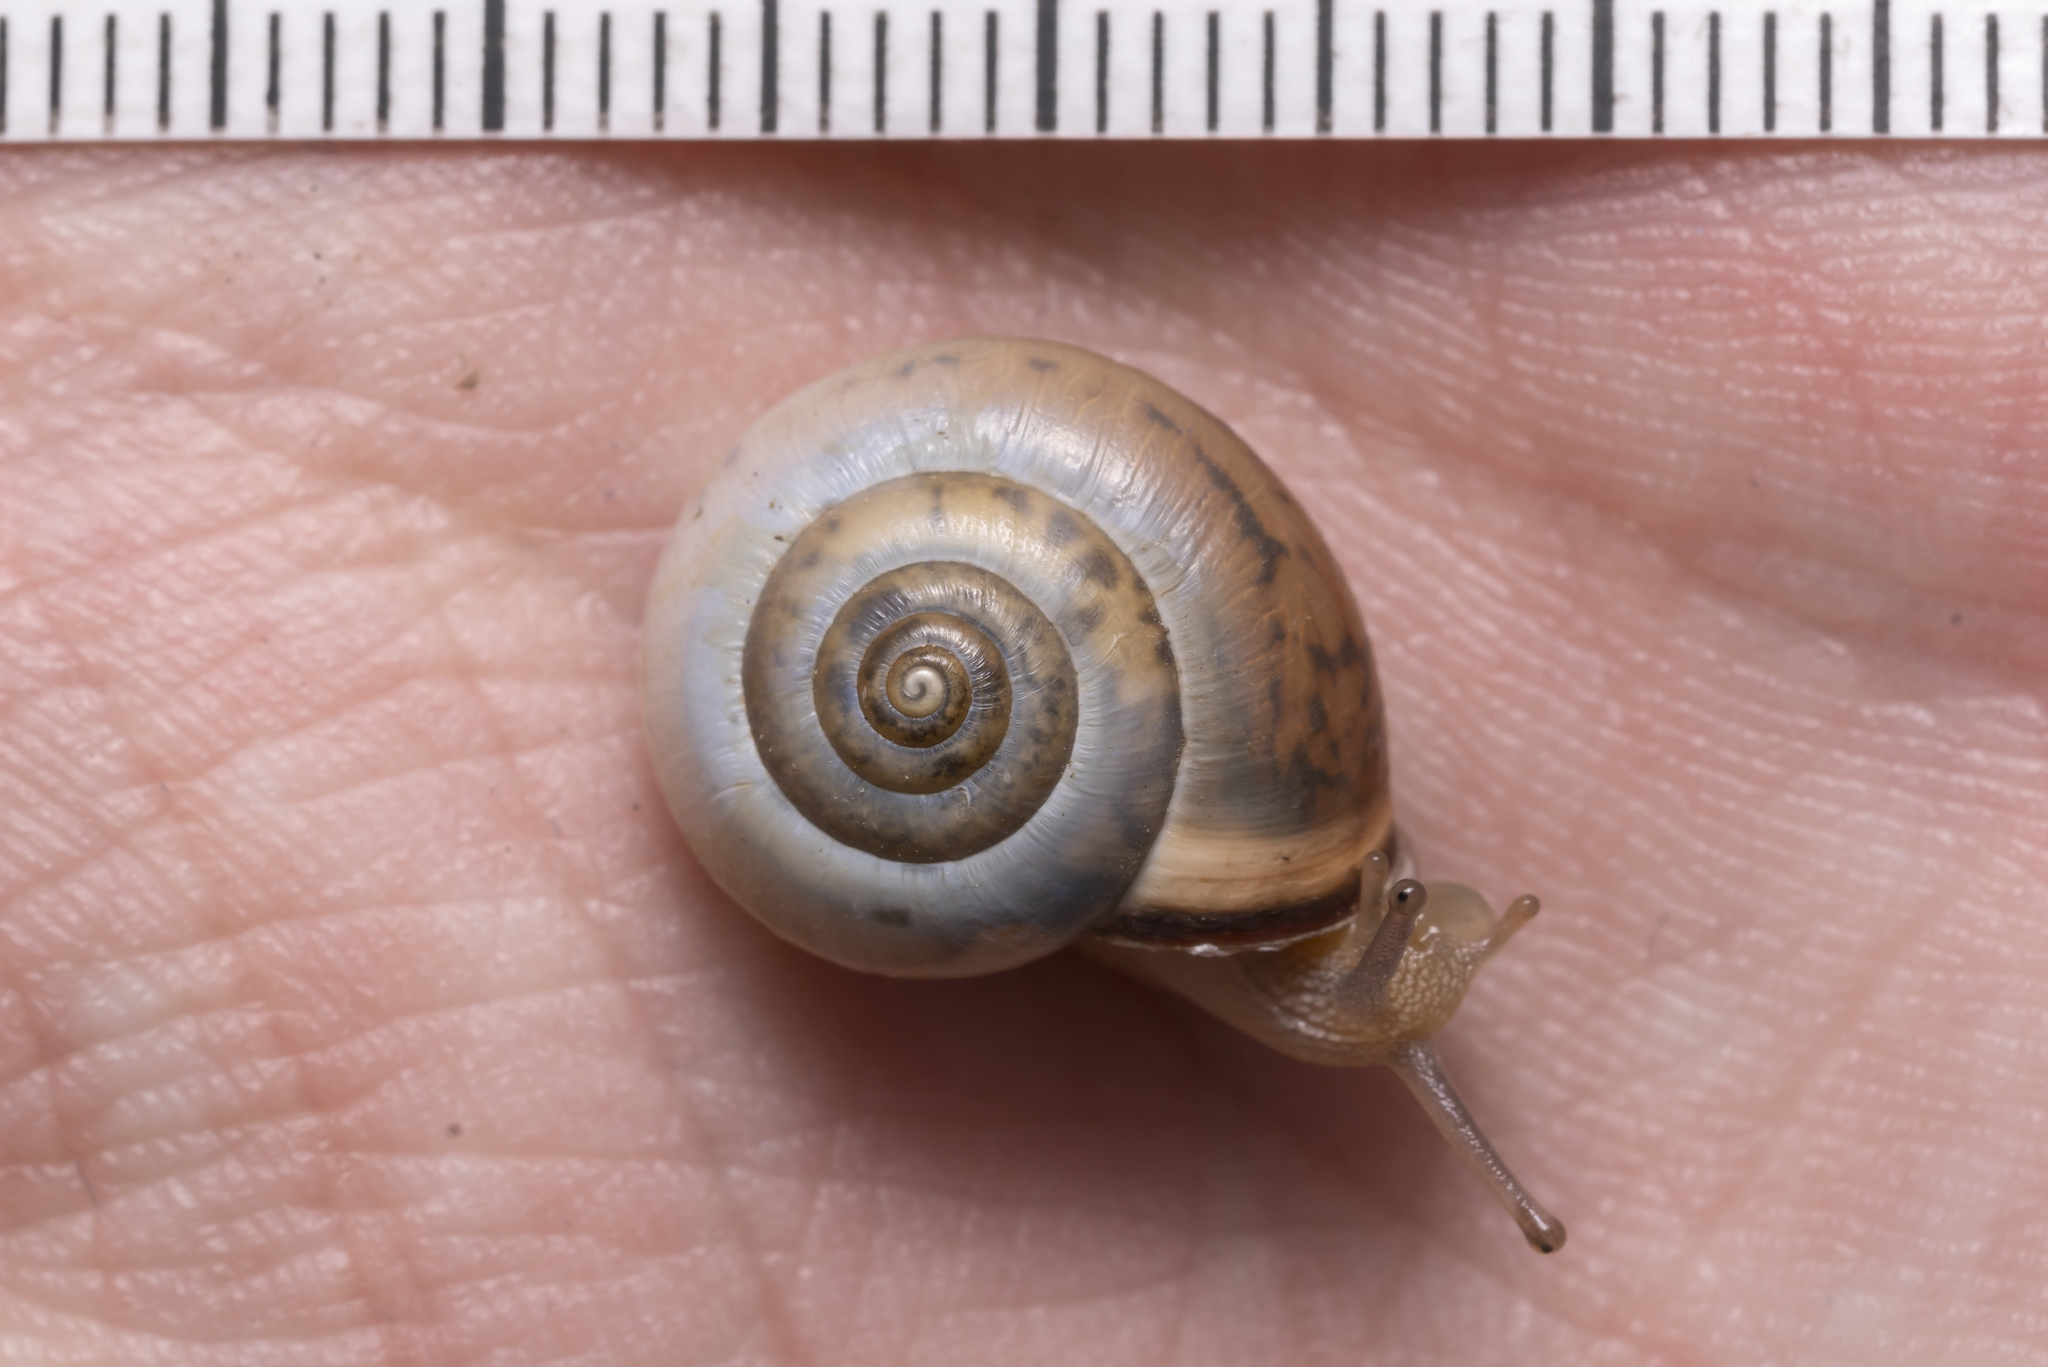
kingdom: Animalia
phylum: Mollusca
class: Gastropoda
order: Stylommatophora
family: Hygromiidae
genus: Monacha
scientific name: Monacha cartusiana
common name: Carthusian snail
